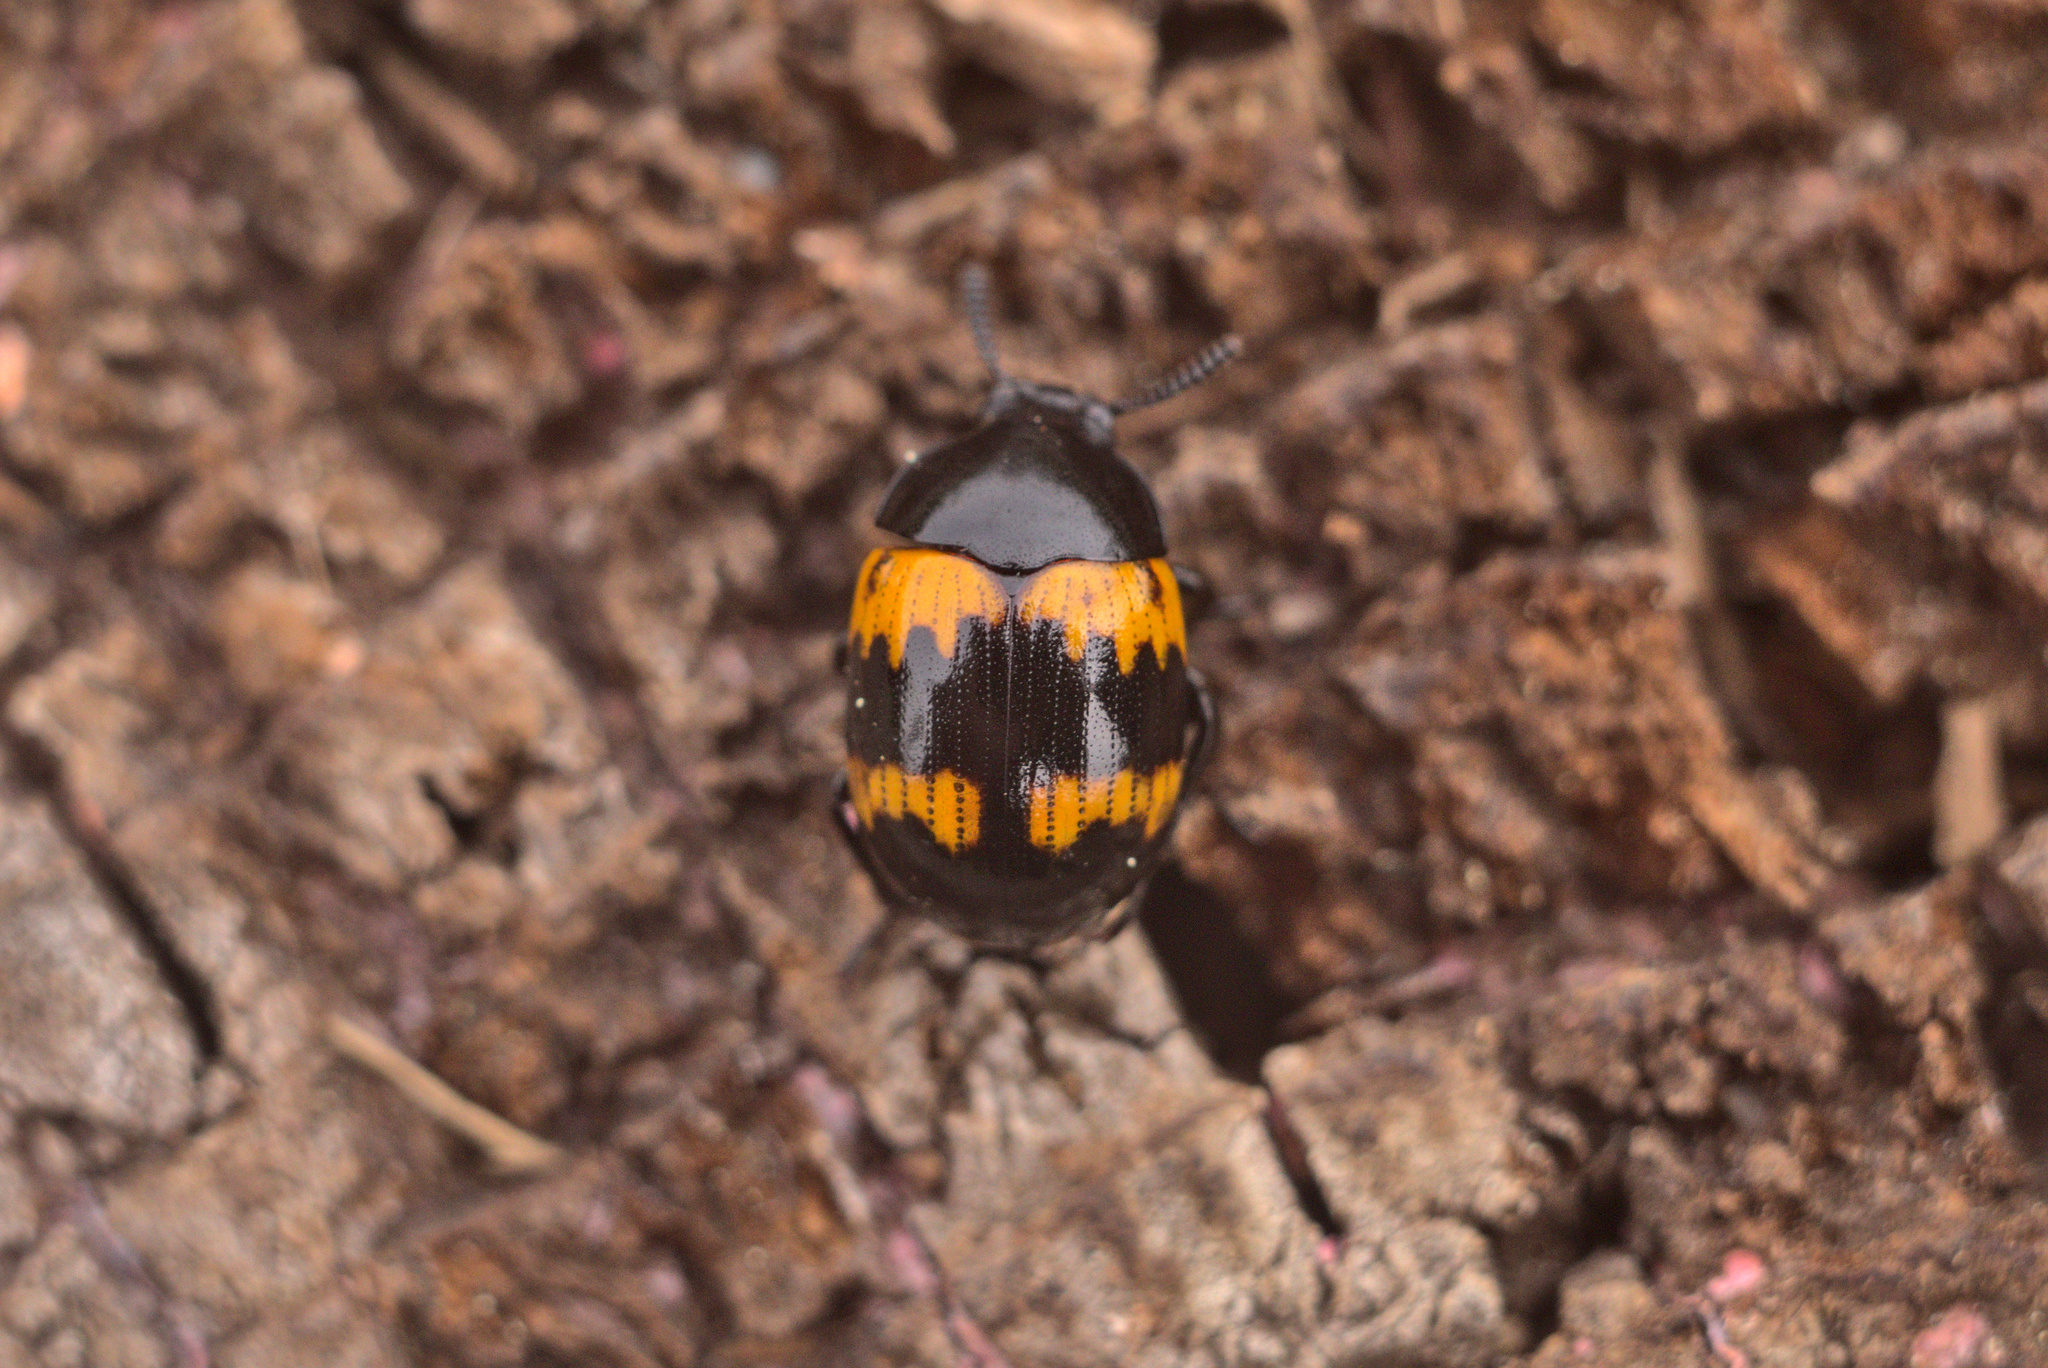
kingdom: Animalia
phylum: Arthropoda
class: Insecta
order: Coleoptera
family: Tenebrionidae
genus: Diaperis
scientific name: Diaperis boleti
